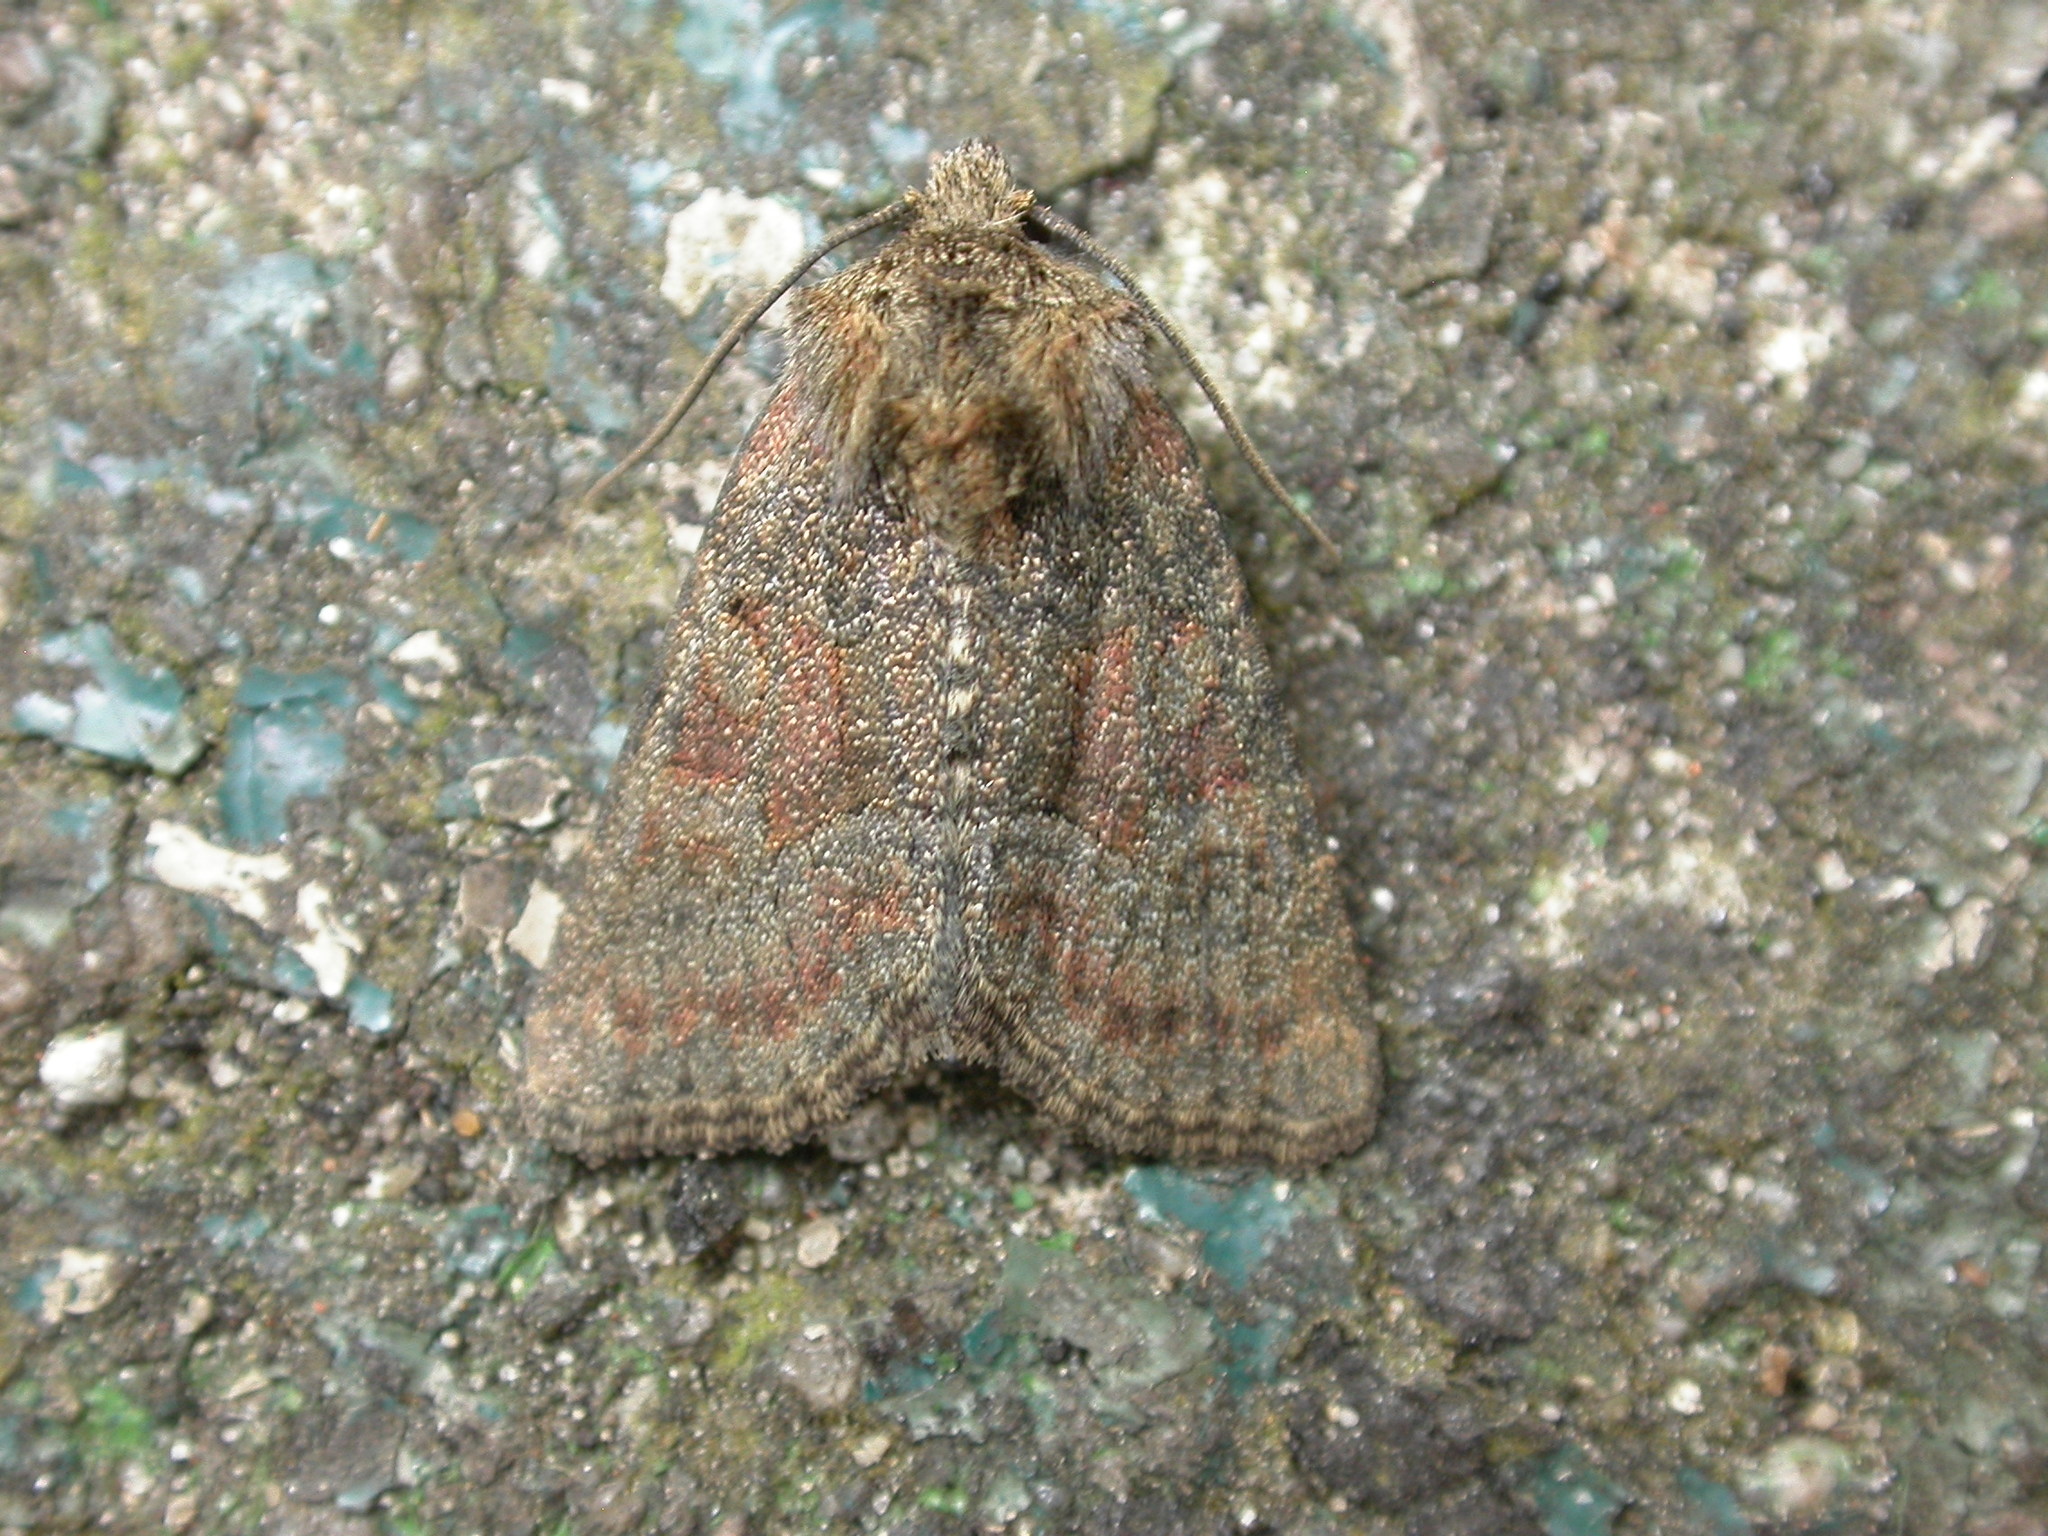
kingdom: Animalia
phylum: Arthropoda
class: Insecta
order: Lepidoptera
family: Noctuidae
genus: Oligia
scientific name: Oligia latruncula
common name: Tawny marbled minor
